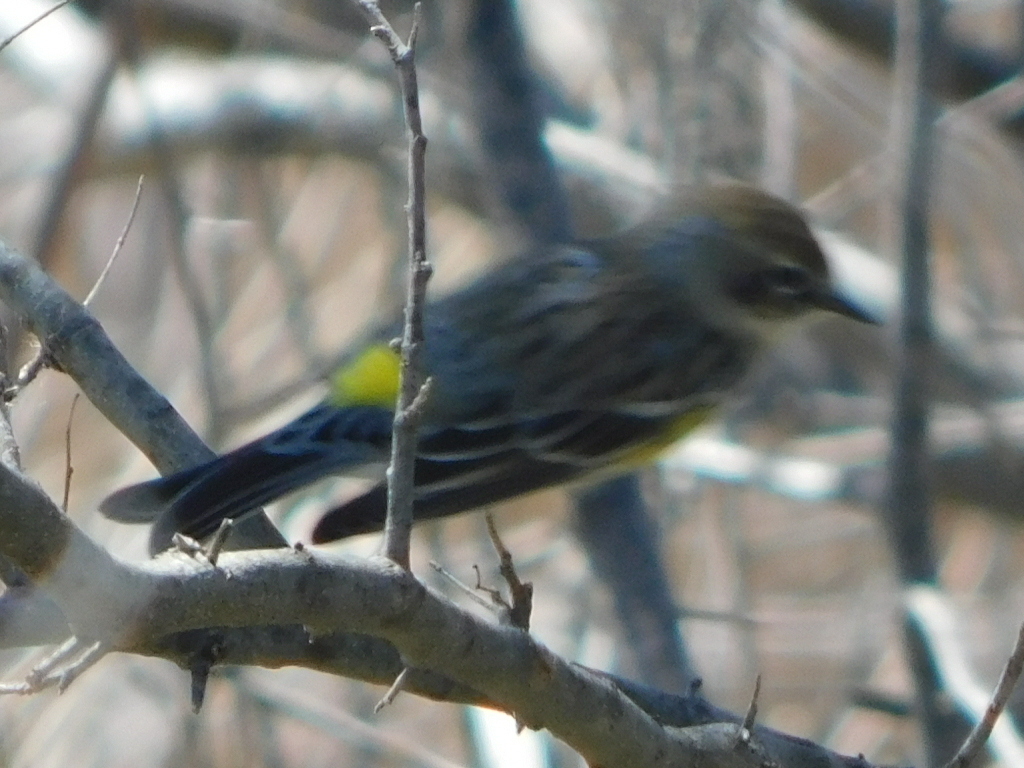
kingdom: Animalia
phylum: Chordata
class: Aves
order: Passeriformes
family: Parulidae
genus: Setophaga
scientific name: Setophaga coronata
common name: Myrtle warbler
